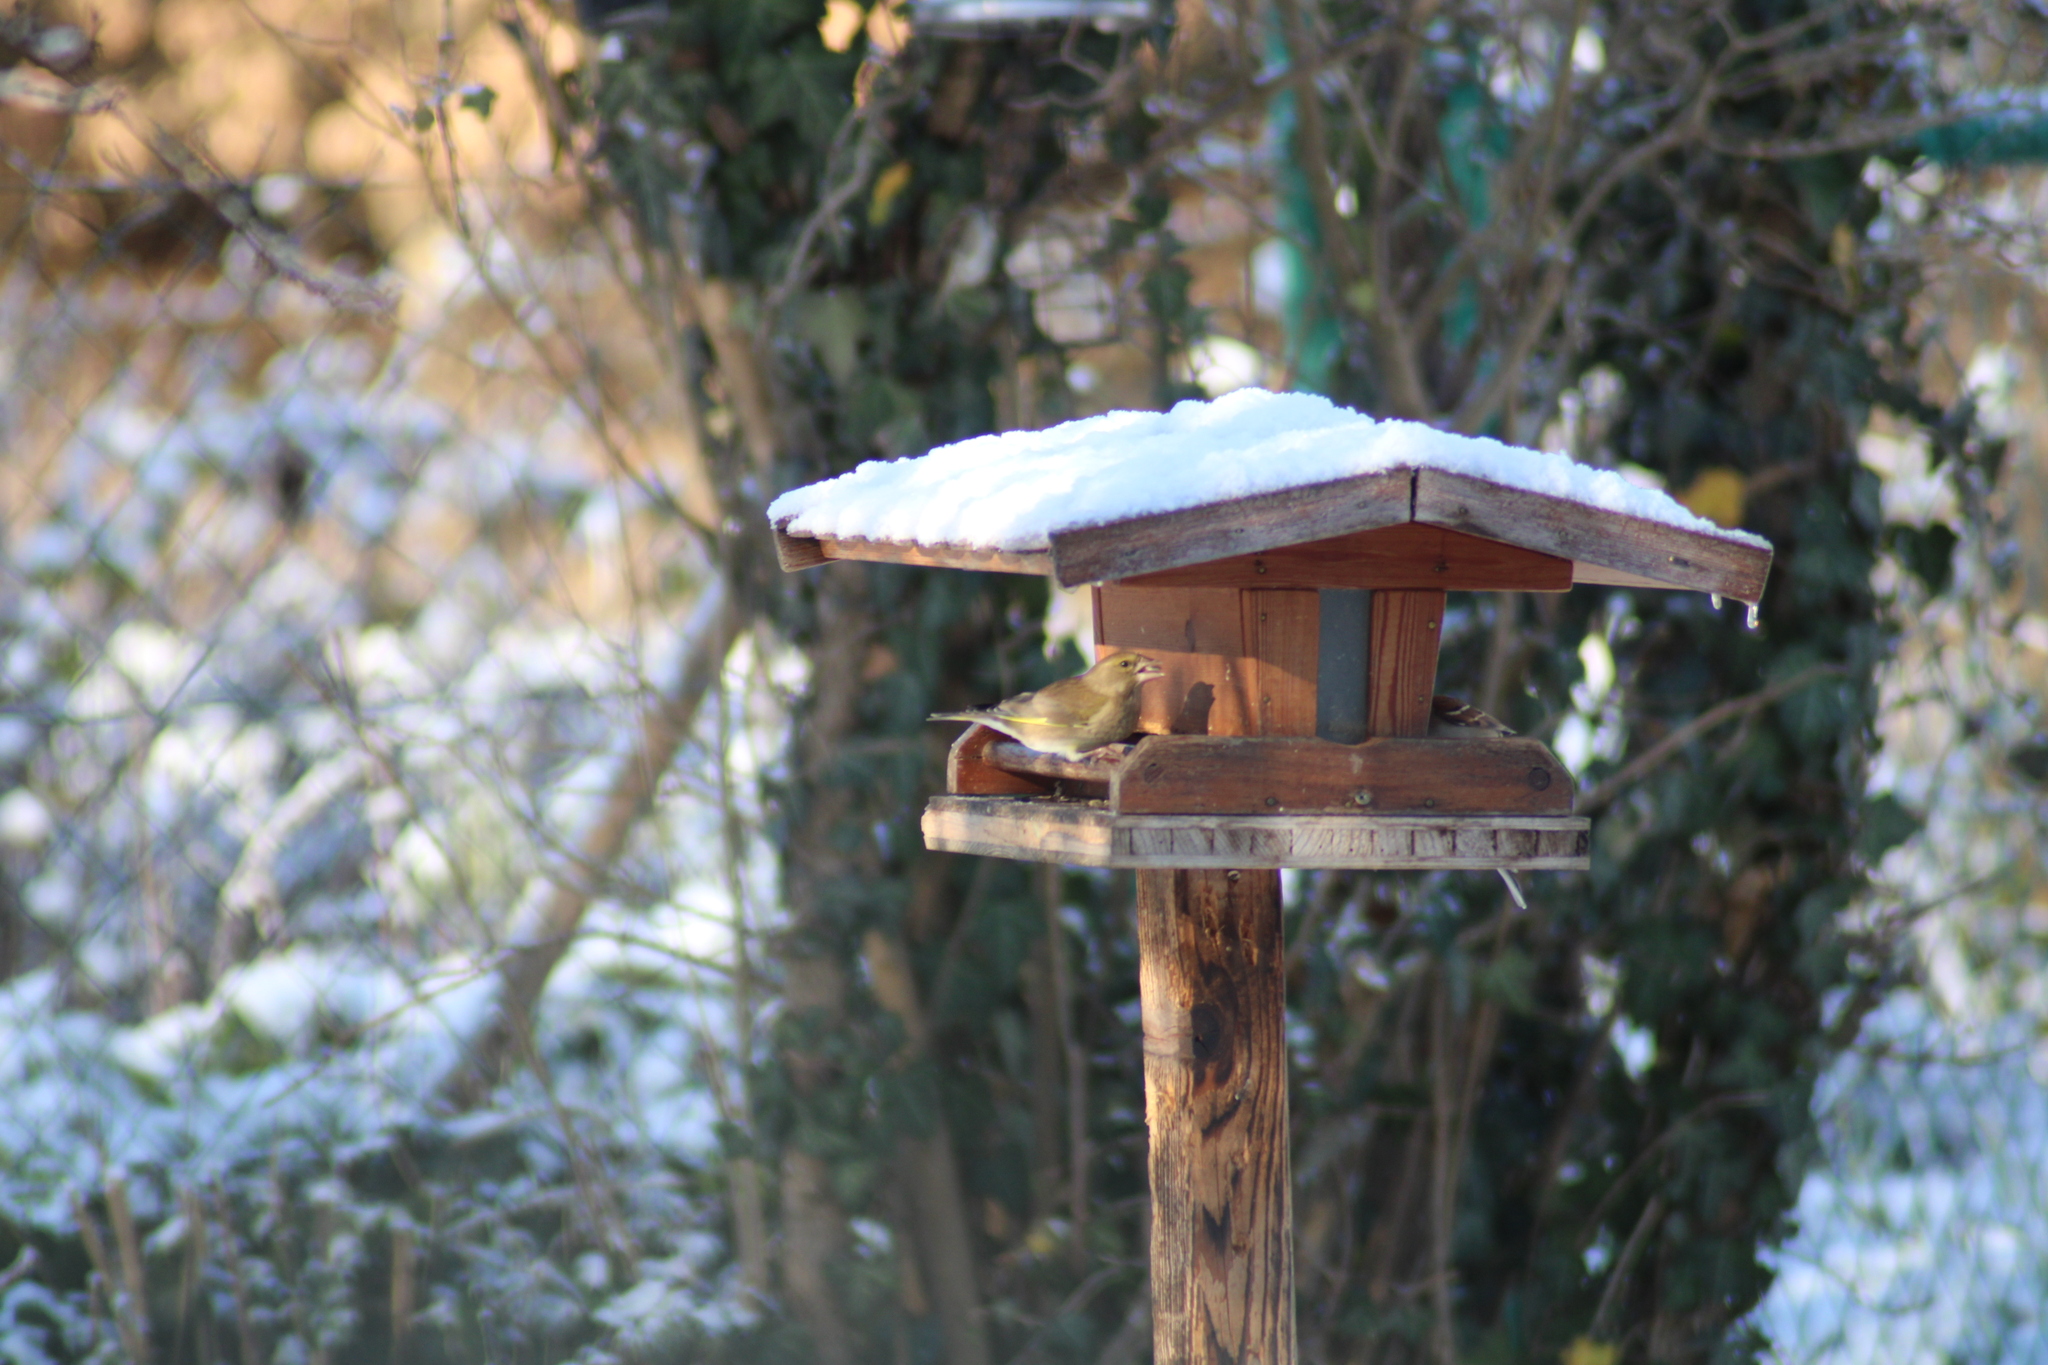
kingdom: Plantae
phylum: Tracheophyta
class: Liliopsida
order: Poales
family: Poaceae
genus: Chloris
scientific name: Chloris chloris
